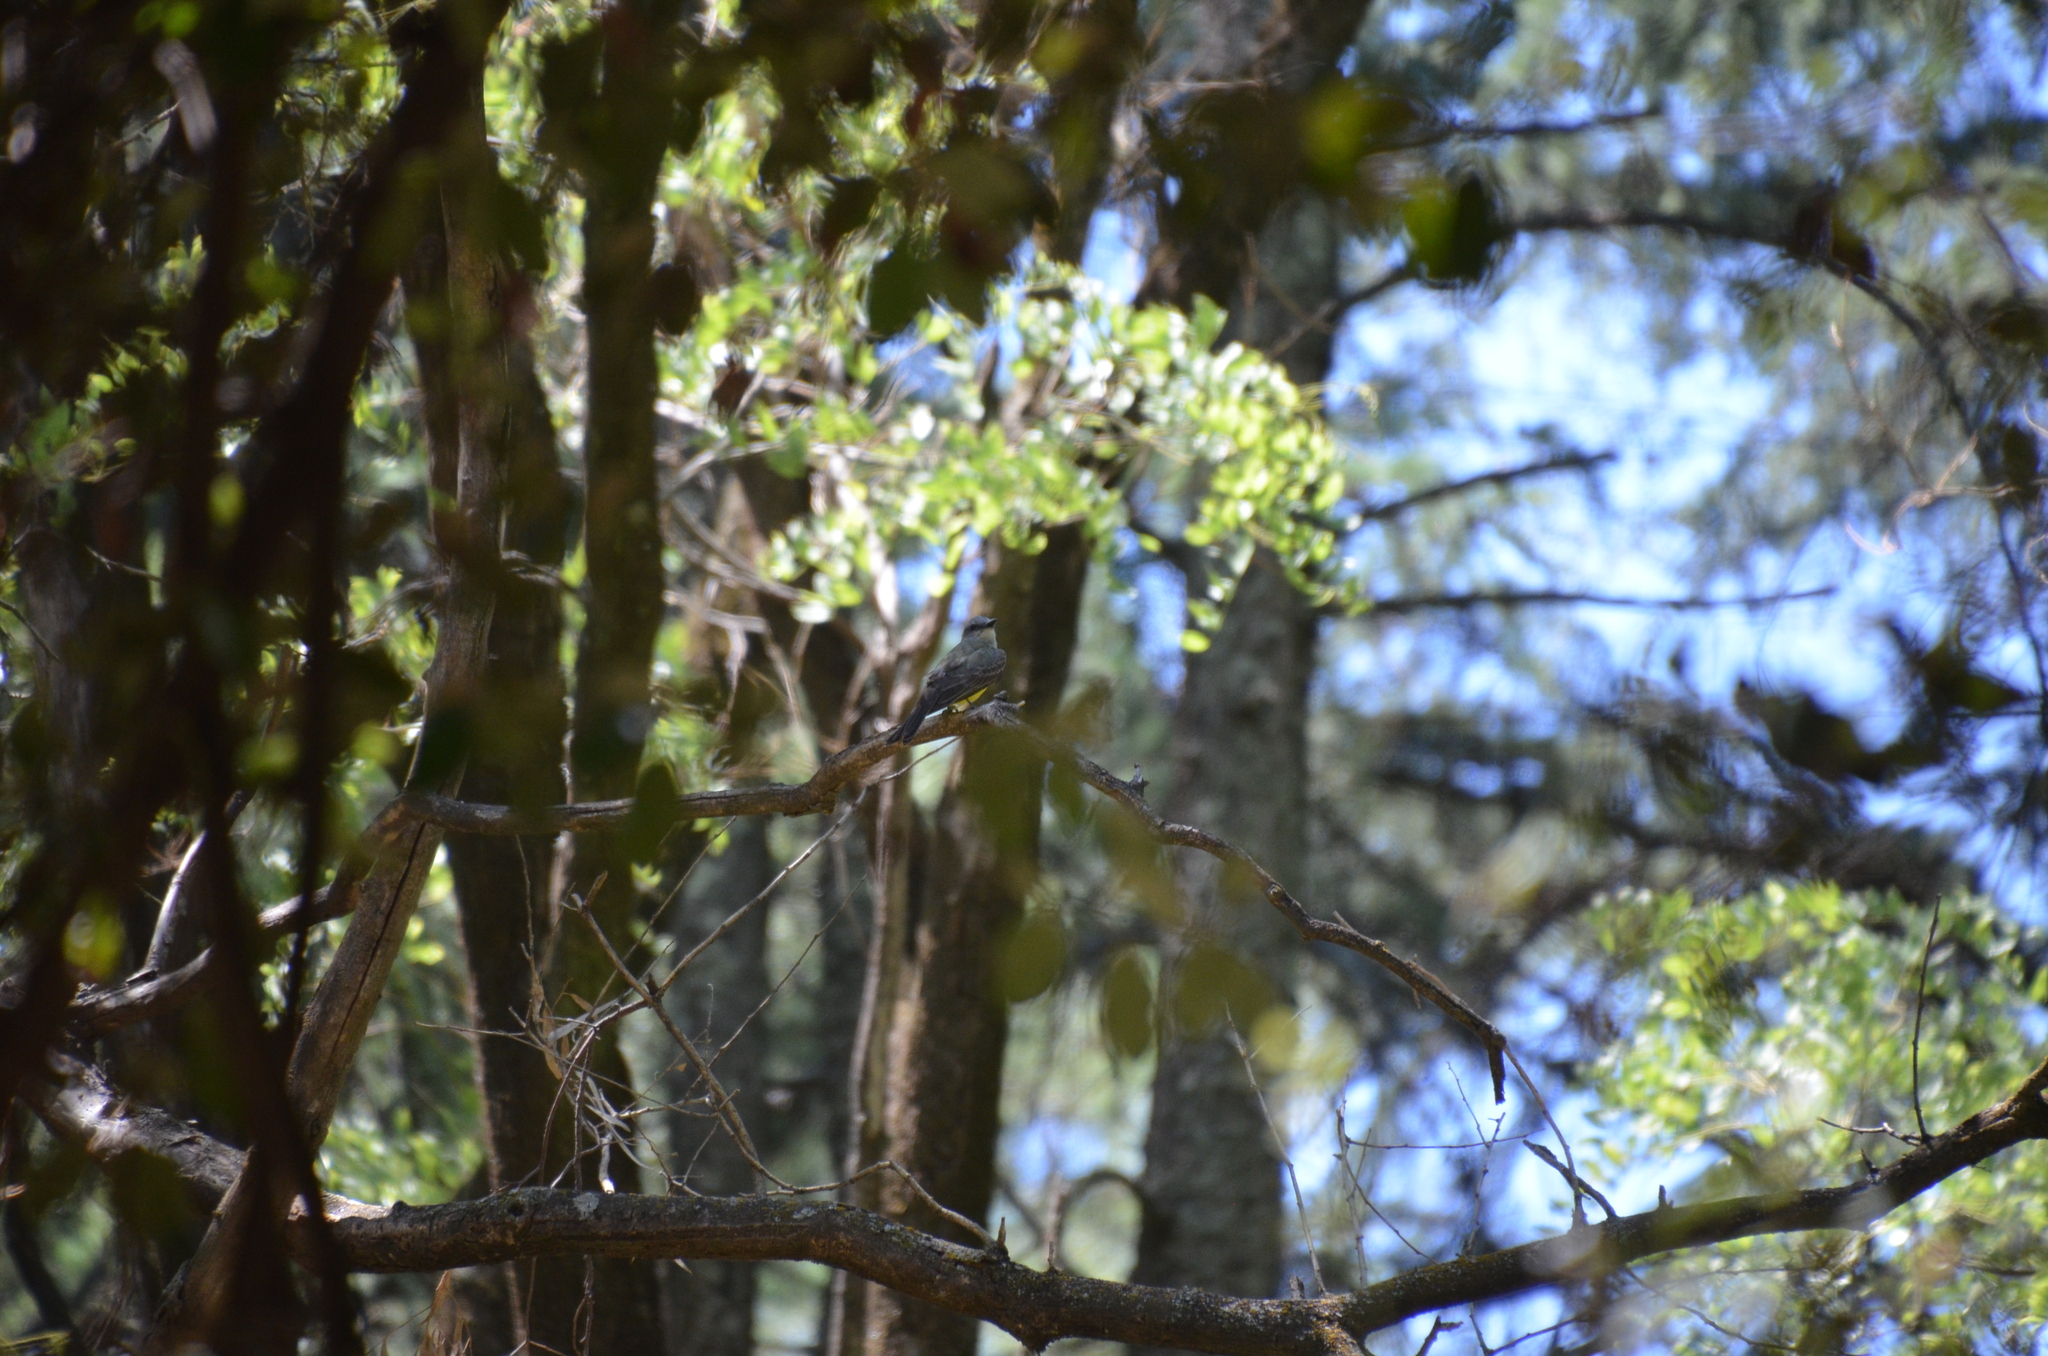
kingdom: Animalia
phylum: Chordata
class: Aves
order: Passeriformes
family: Tyrannidae
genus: Tyrannus
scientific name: Tyrannus melancholicus
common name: Tropical kingbird
